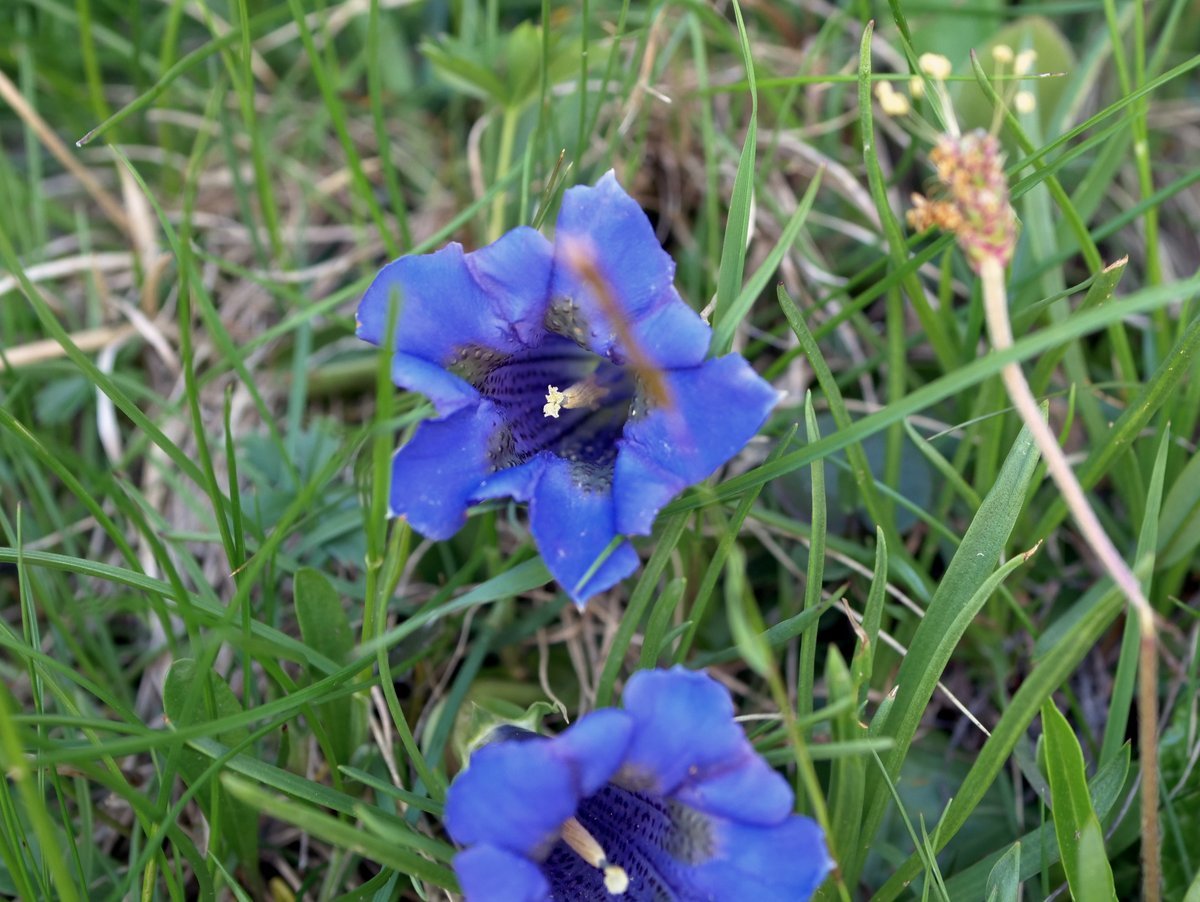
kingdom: Plantae
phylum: Tracheophyta
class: Magnoliopsida
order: Gentianales
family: Gentianaceae
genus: Gentiana
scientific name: Gentiana acaulis
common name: Trumpet gentian
